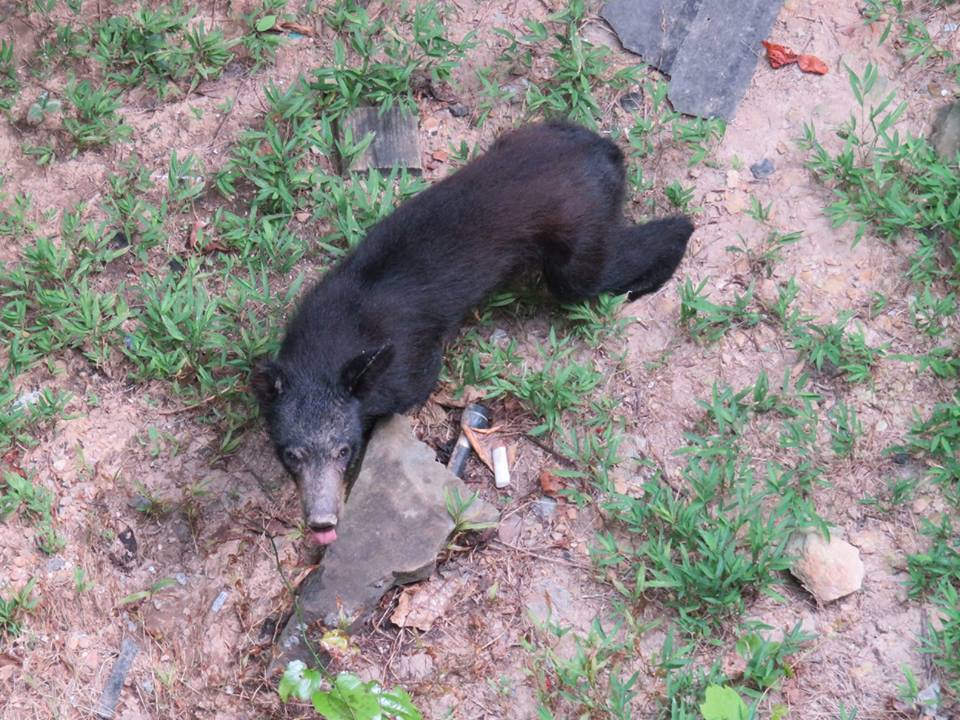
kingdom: Animalia
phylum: Chordata
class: Mammalia
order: Carnivora
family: Ursidae
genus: Ursus
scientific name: Ursus americanus
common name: American black bear
